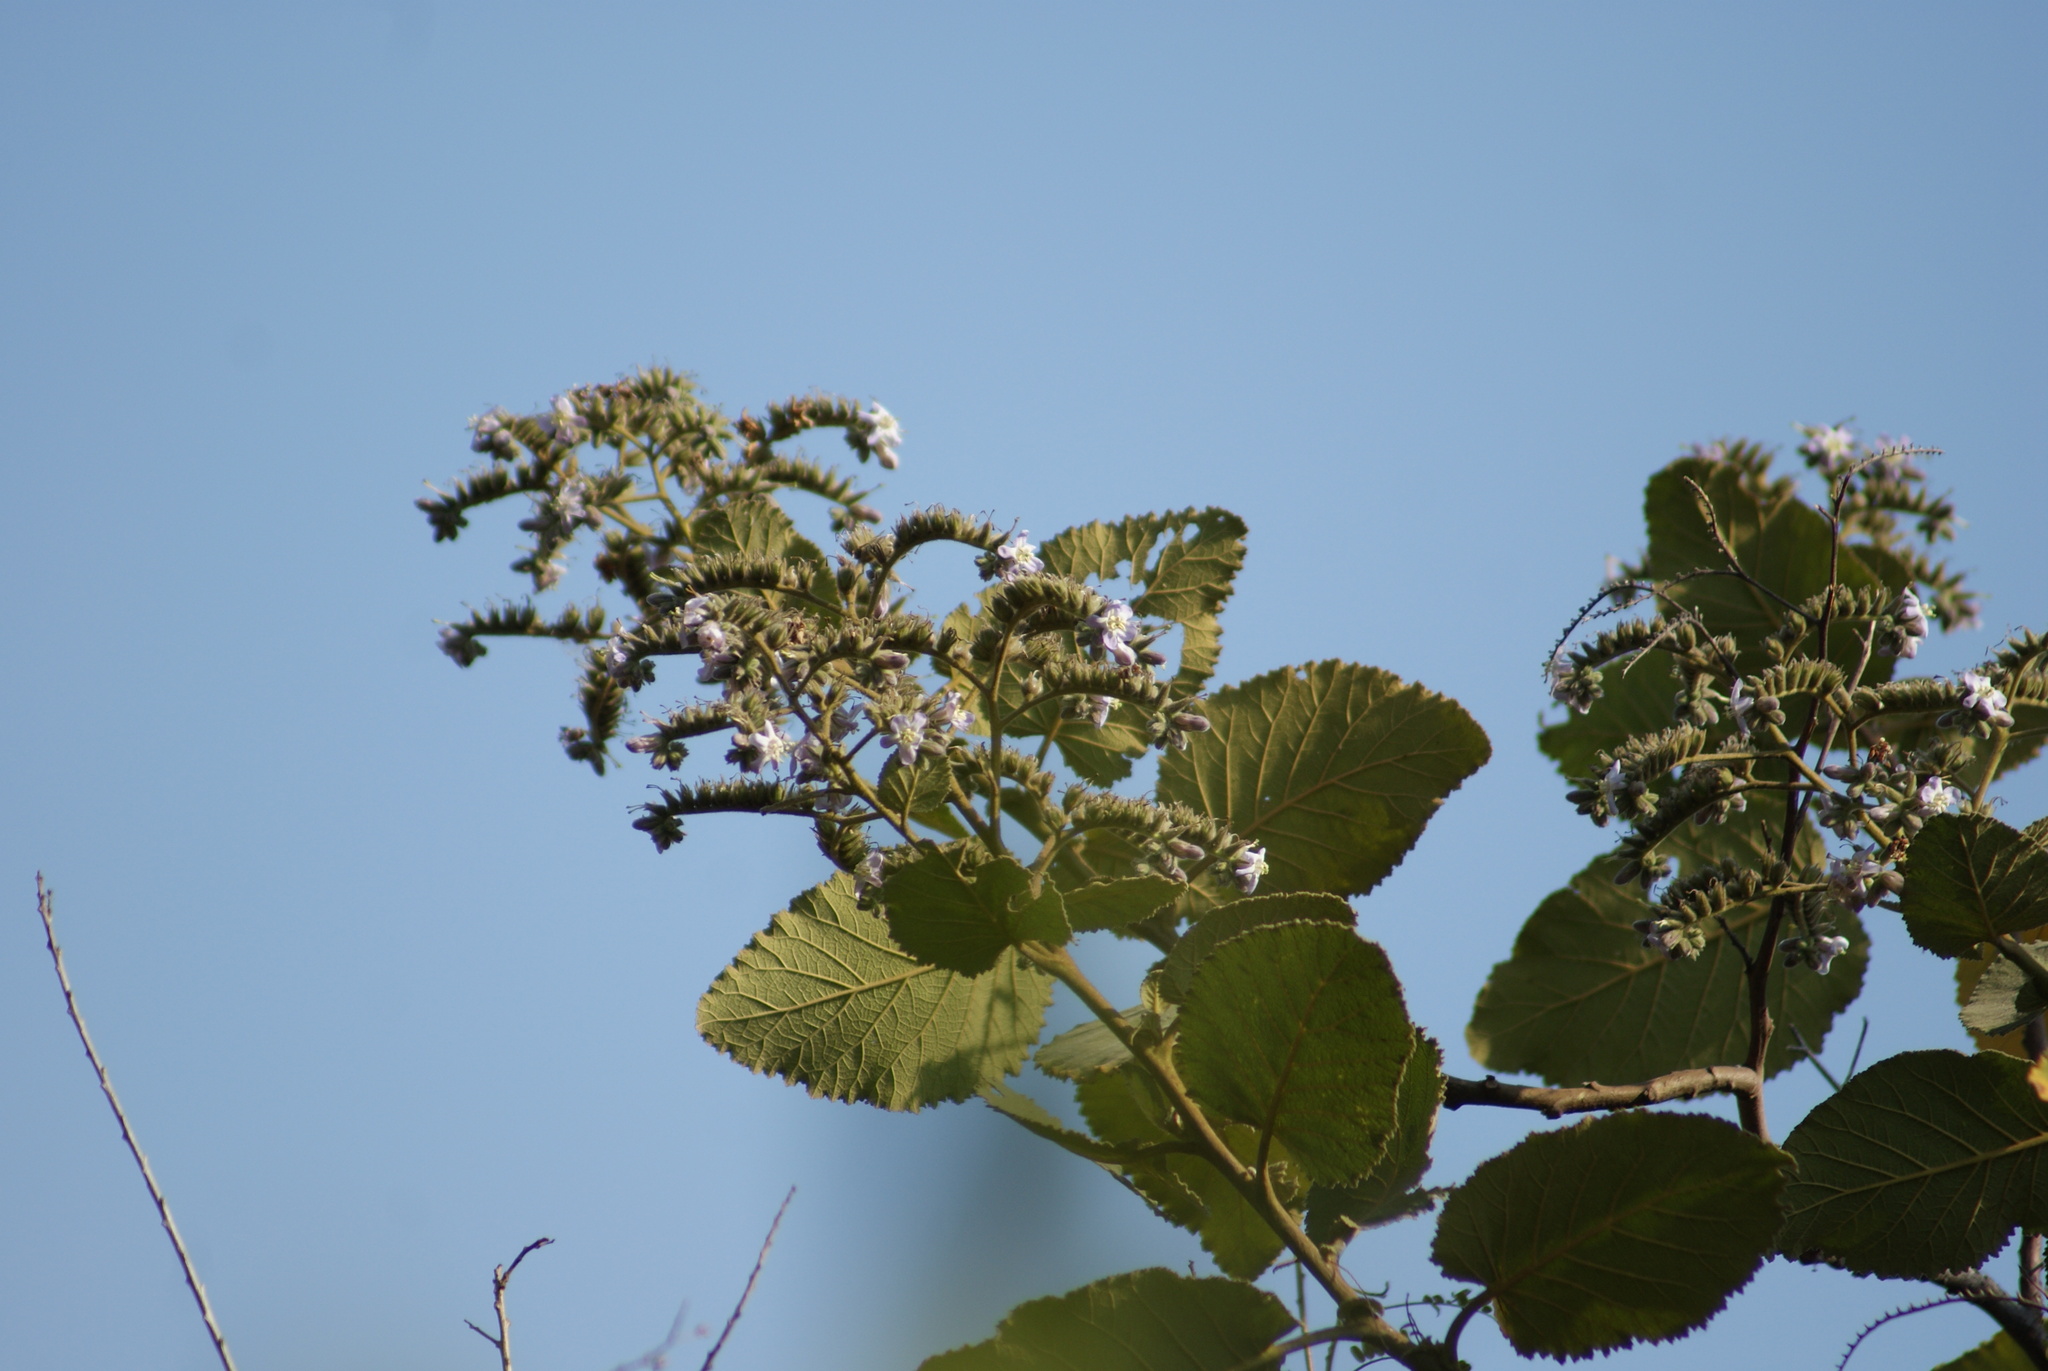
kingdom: Plantae
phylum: Tracheophyta
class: Magnoliopsida
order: Boraginales
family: Namaceae
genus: Wigandia
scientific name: Wigandia urens
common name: Caracus wigandia
